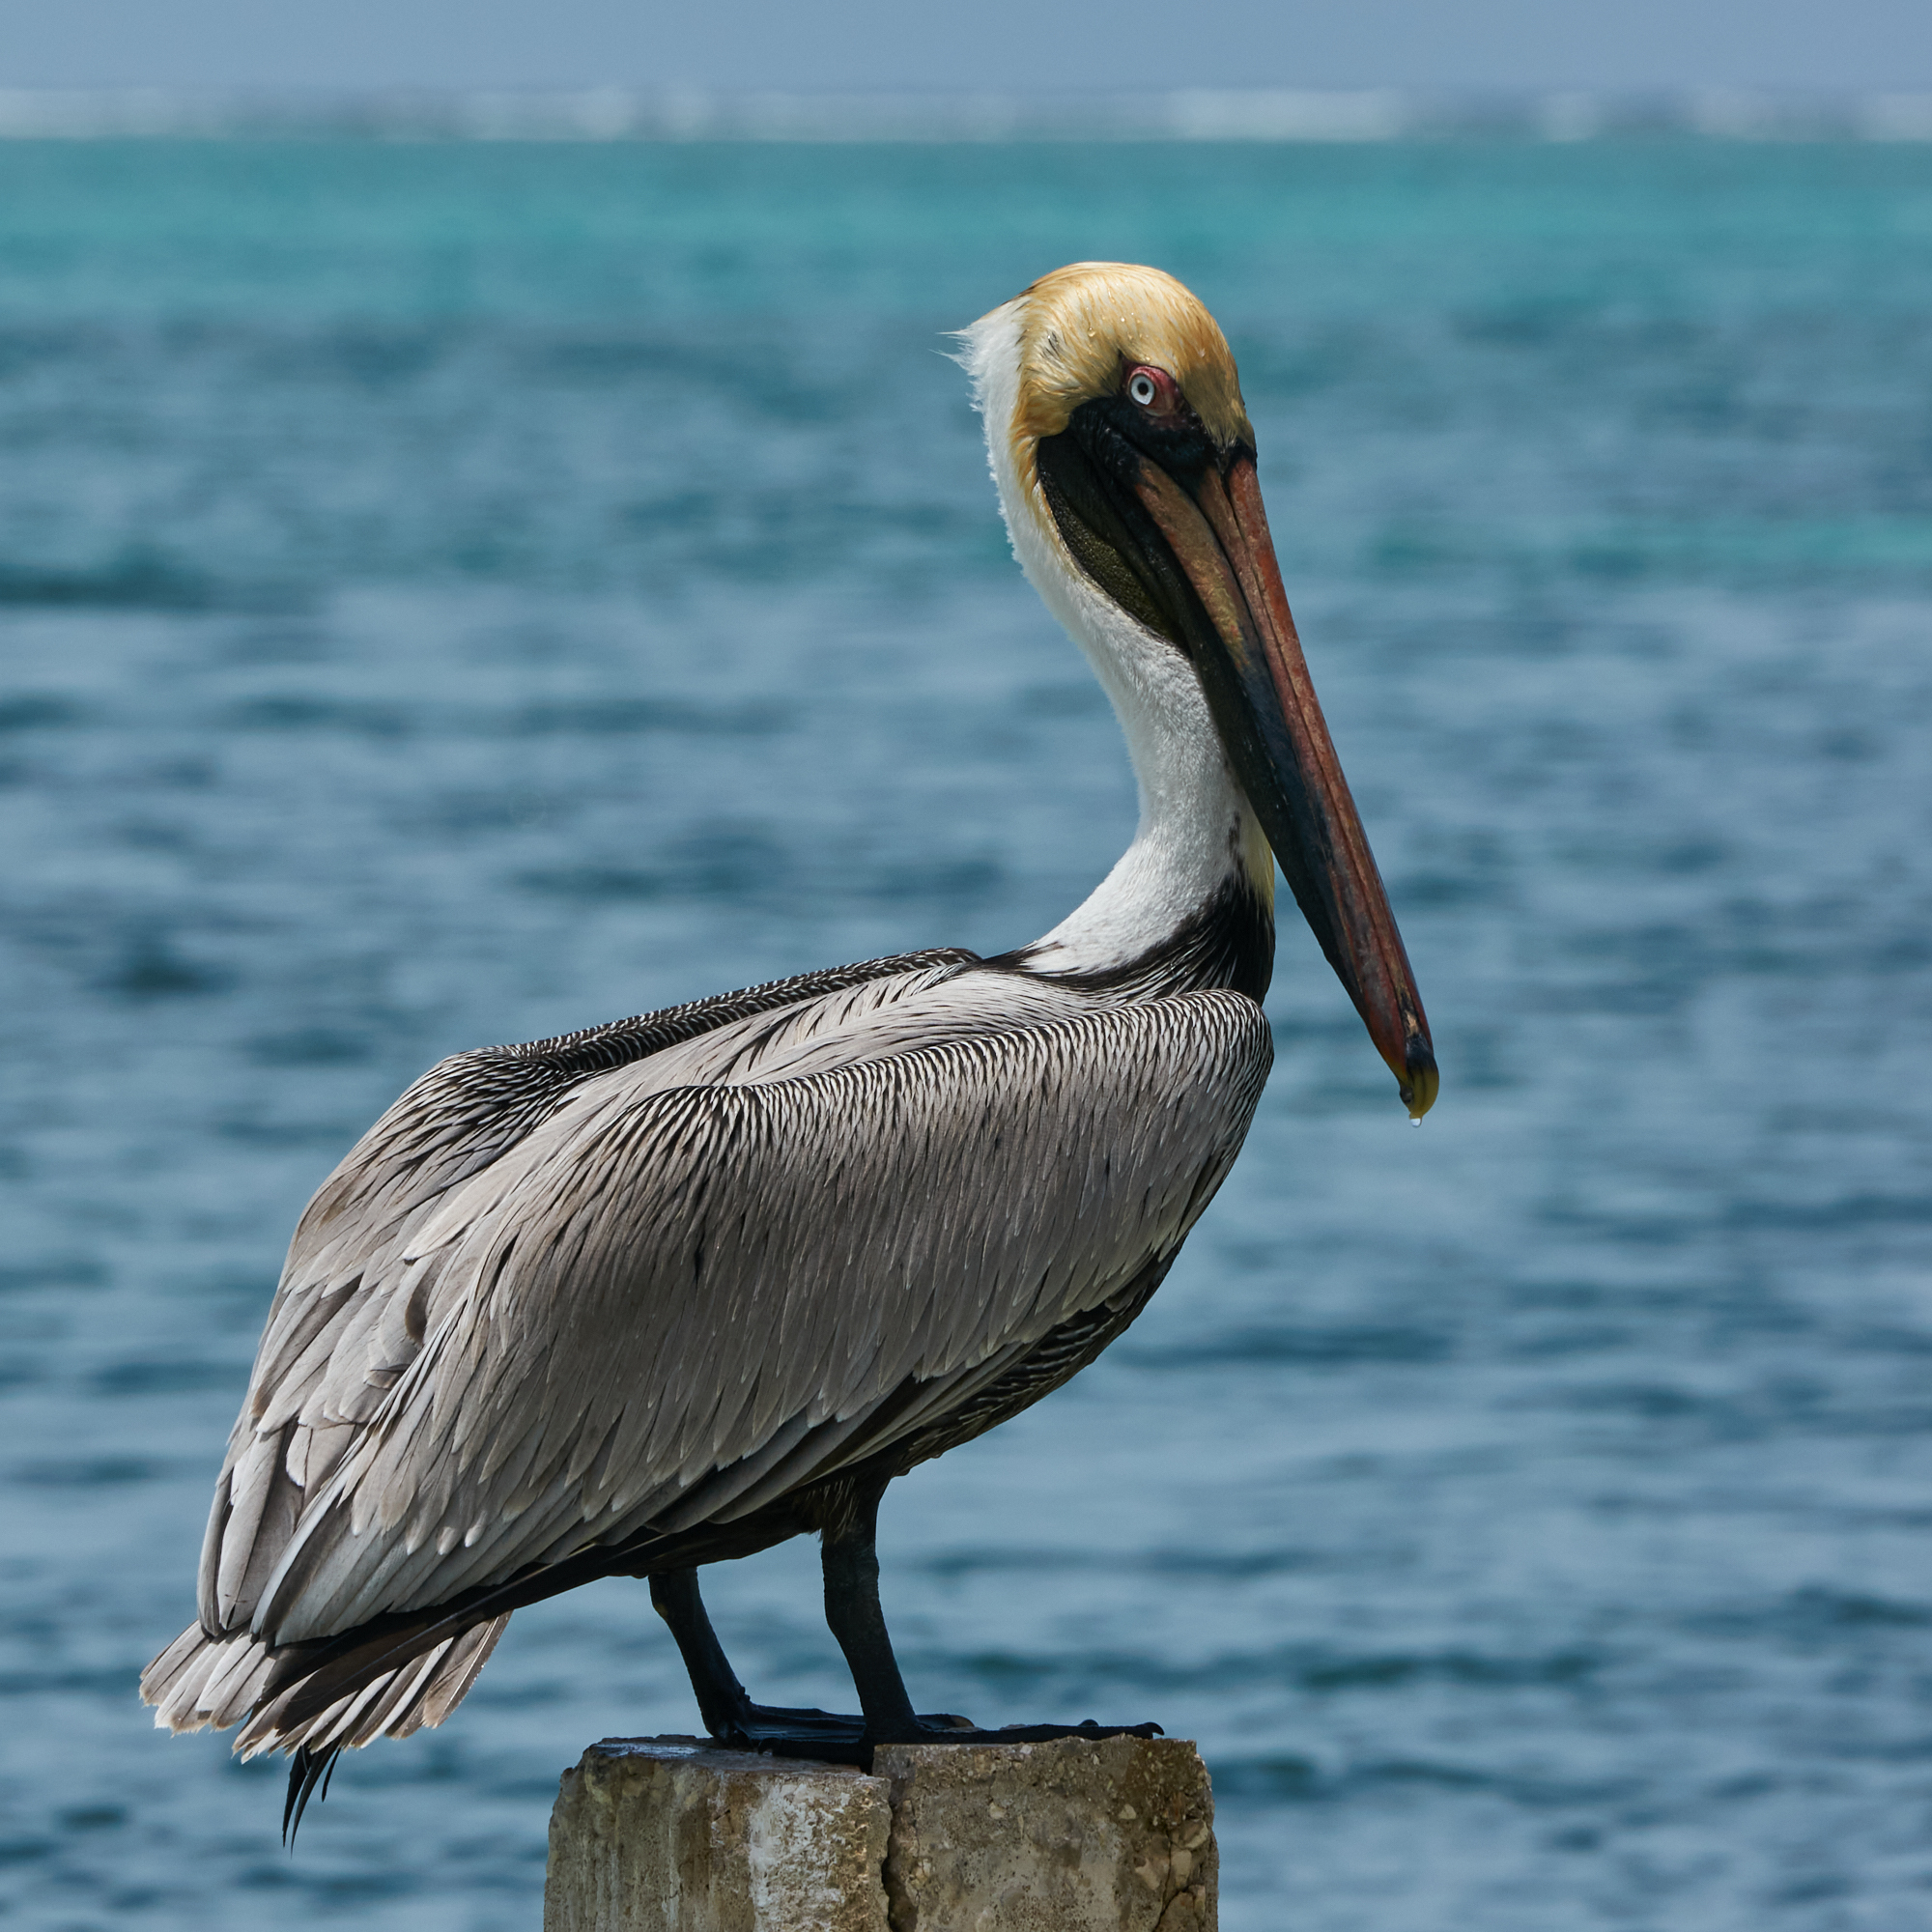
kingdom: Animalia
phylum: Chordata
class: Aves
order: Pelecaniformes
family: Pelecanidae
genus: Pelecanus
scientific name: Pelecanus occidentalis
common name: Brown pelican
